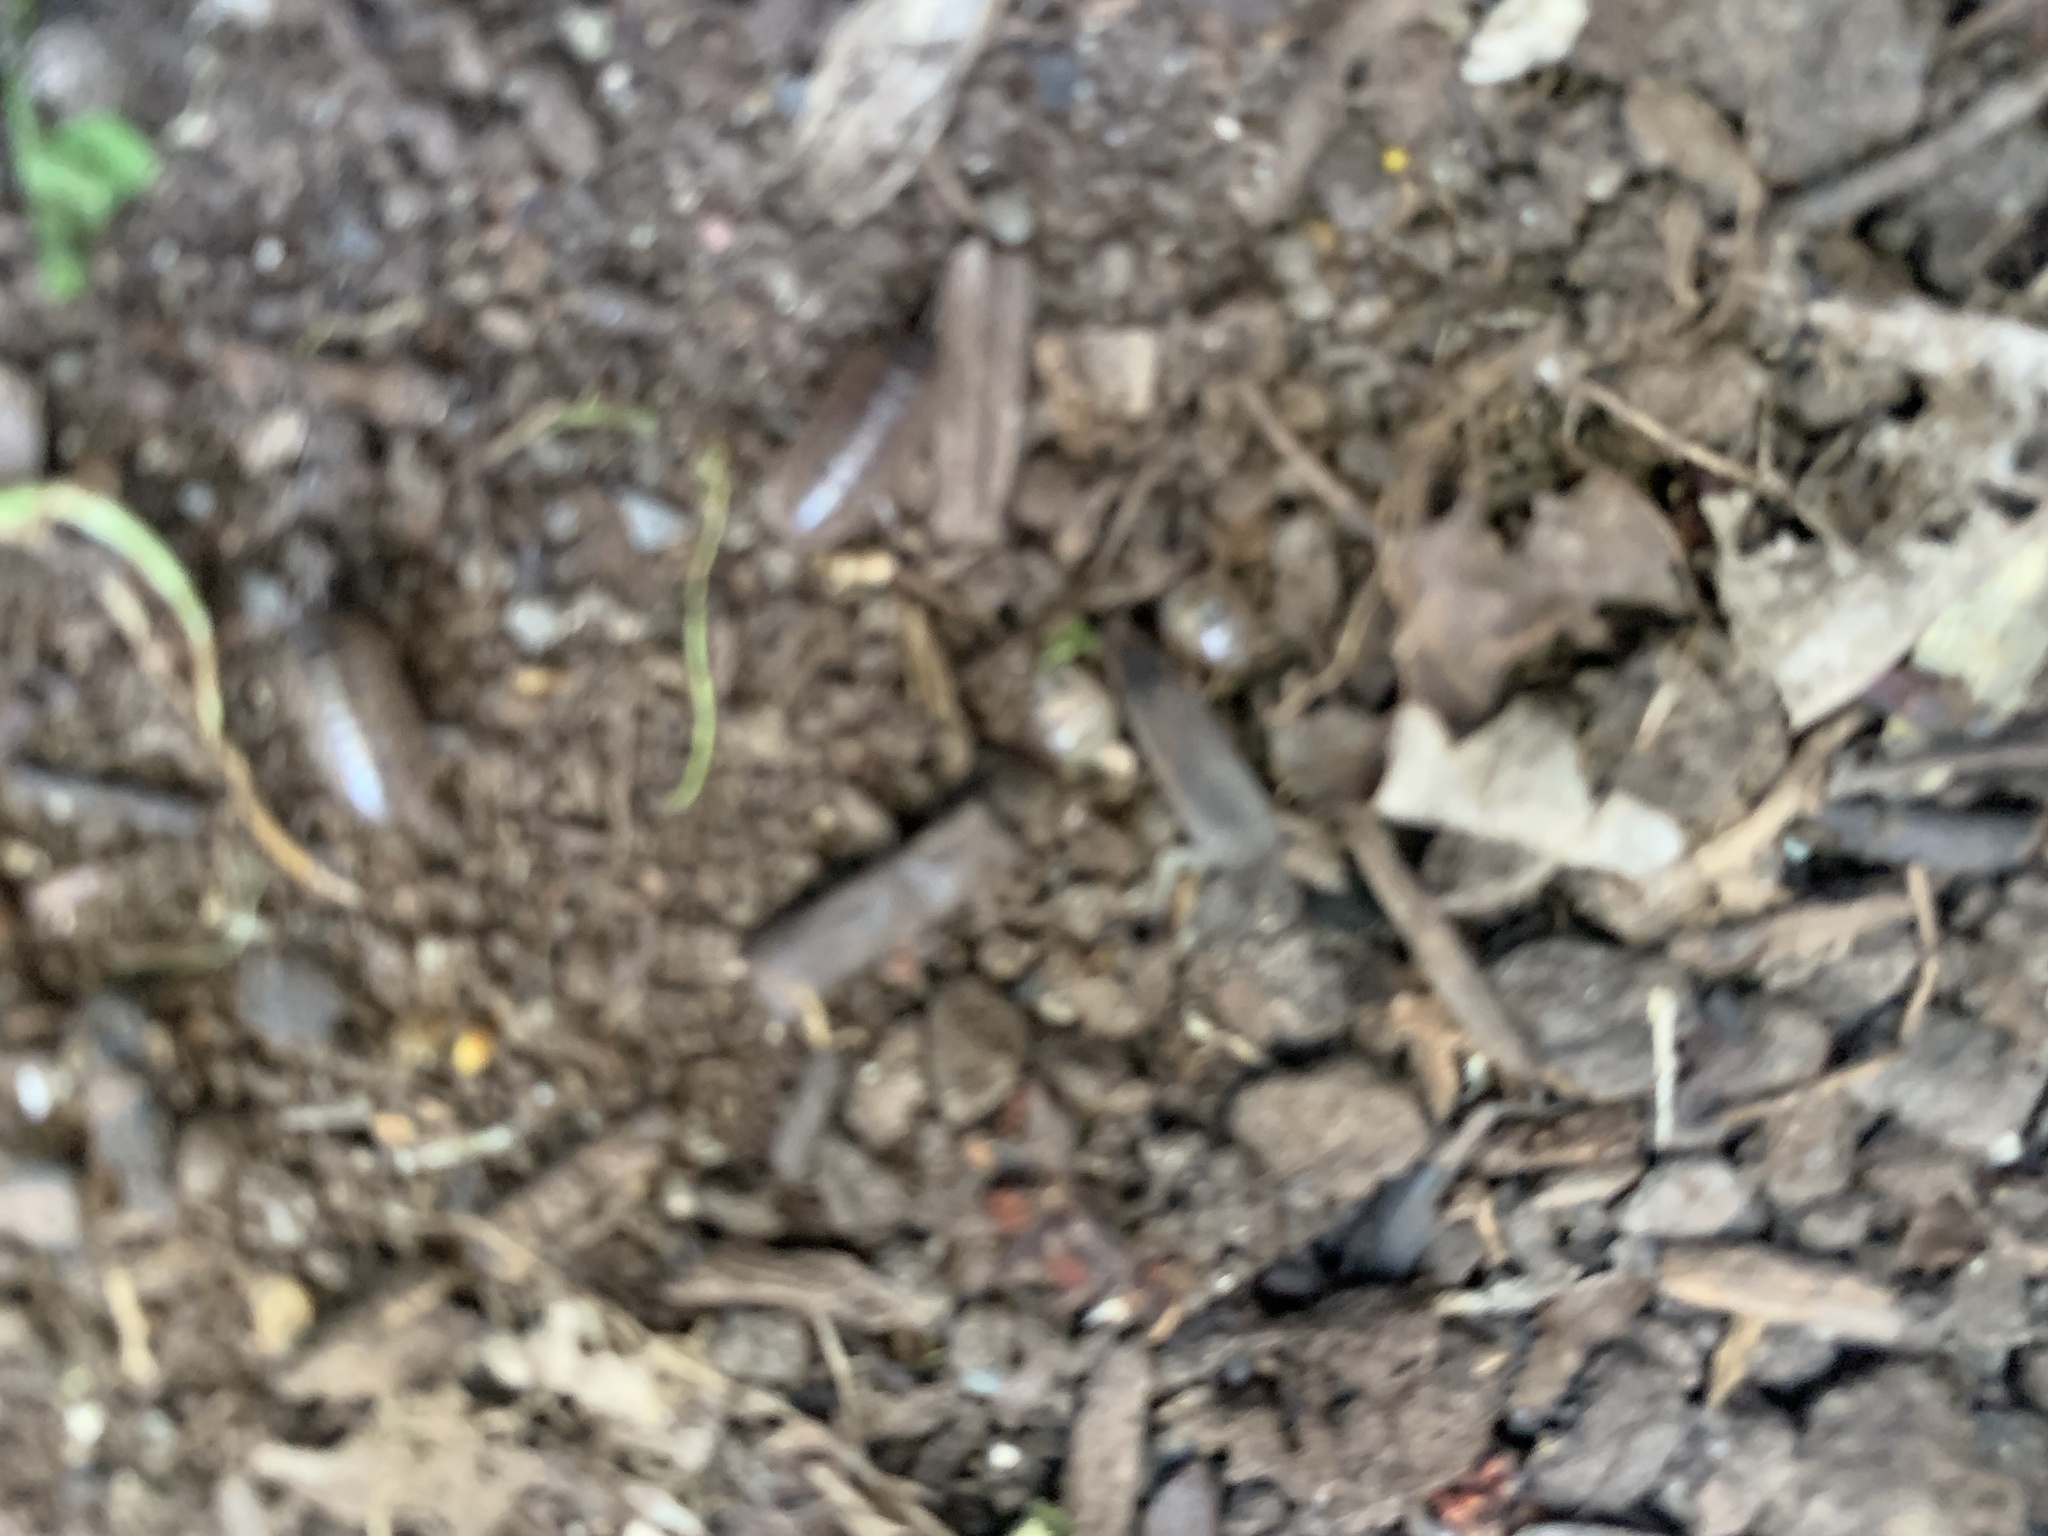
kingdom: Animalia
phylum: Arthropoda
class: Malacostraca
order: Isopoda
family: Armadillidiidae
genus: Armadillidium
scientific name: Armadillidium vulgare
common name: Common pill woodlouse
